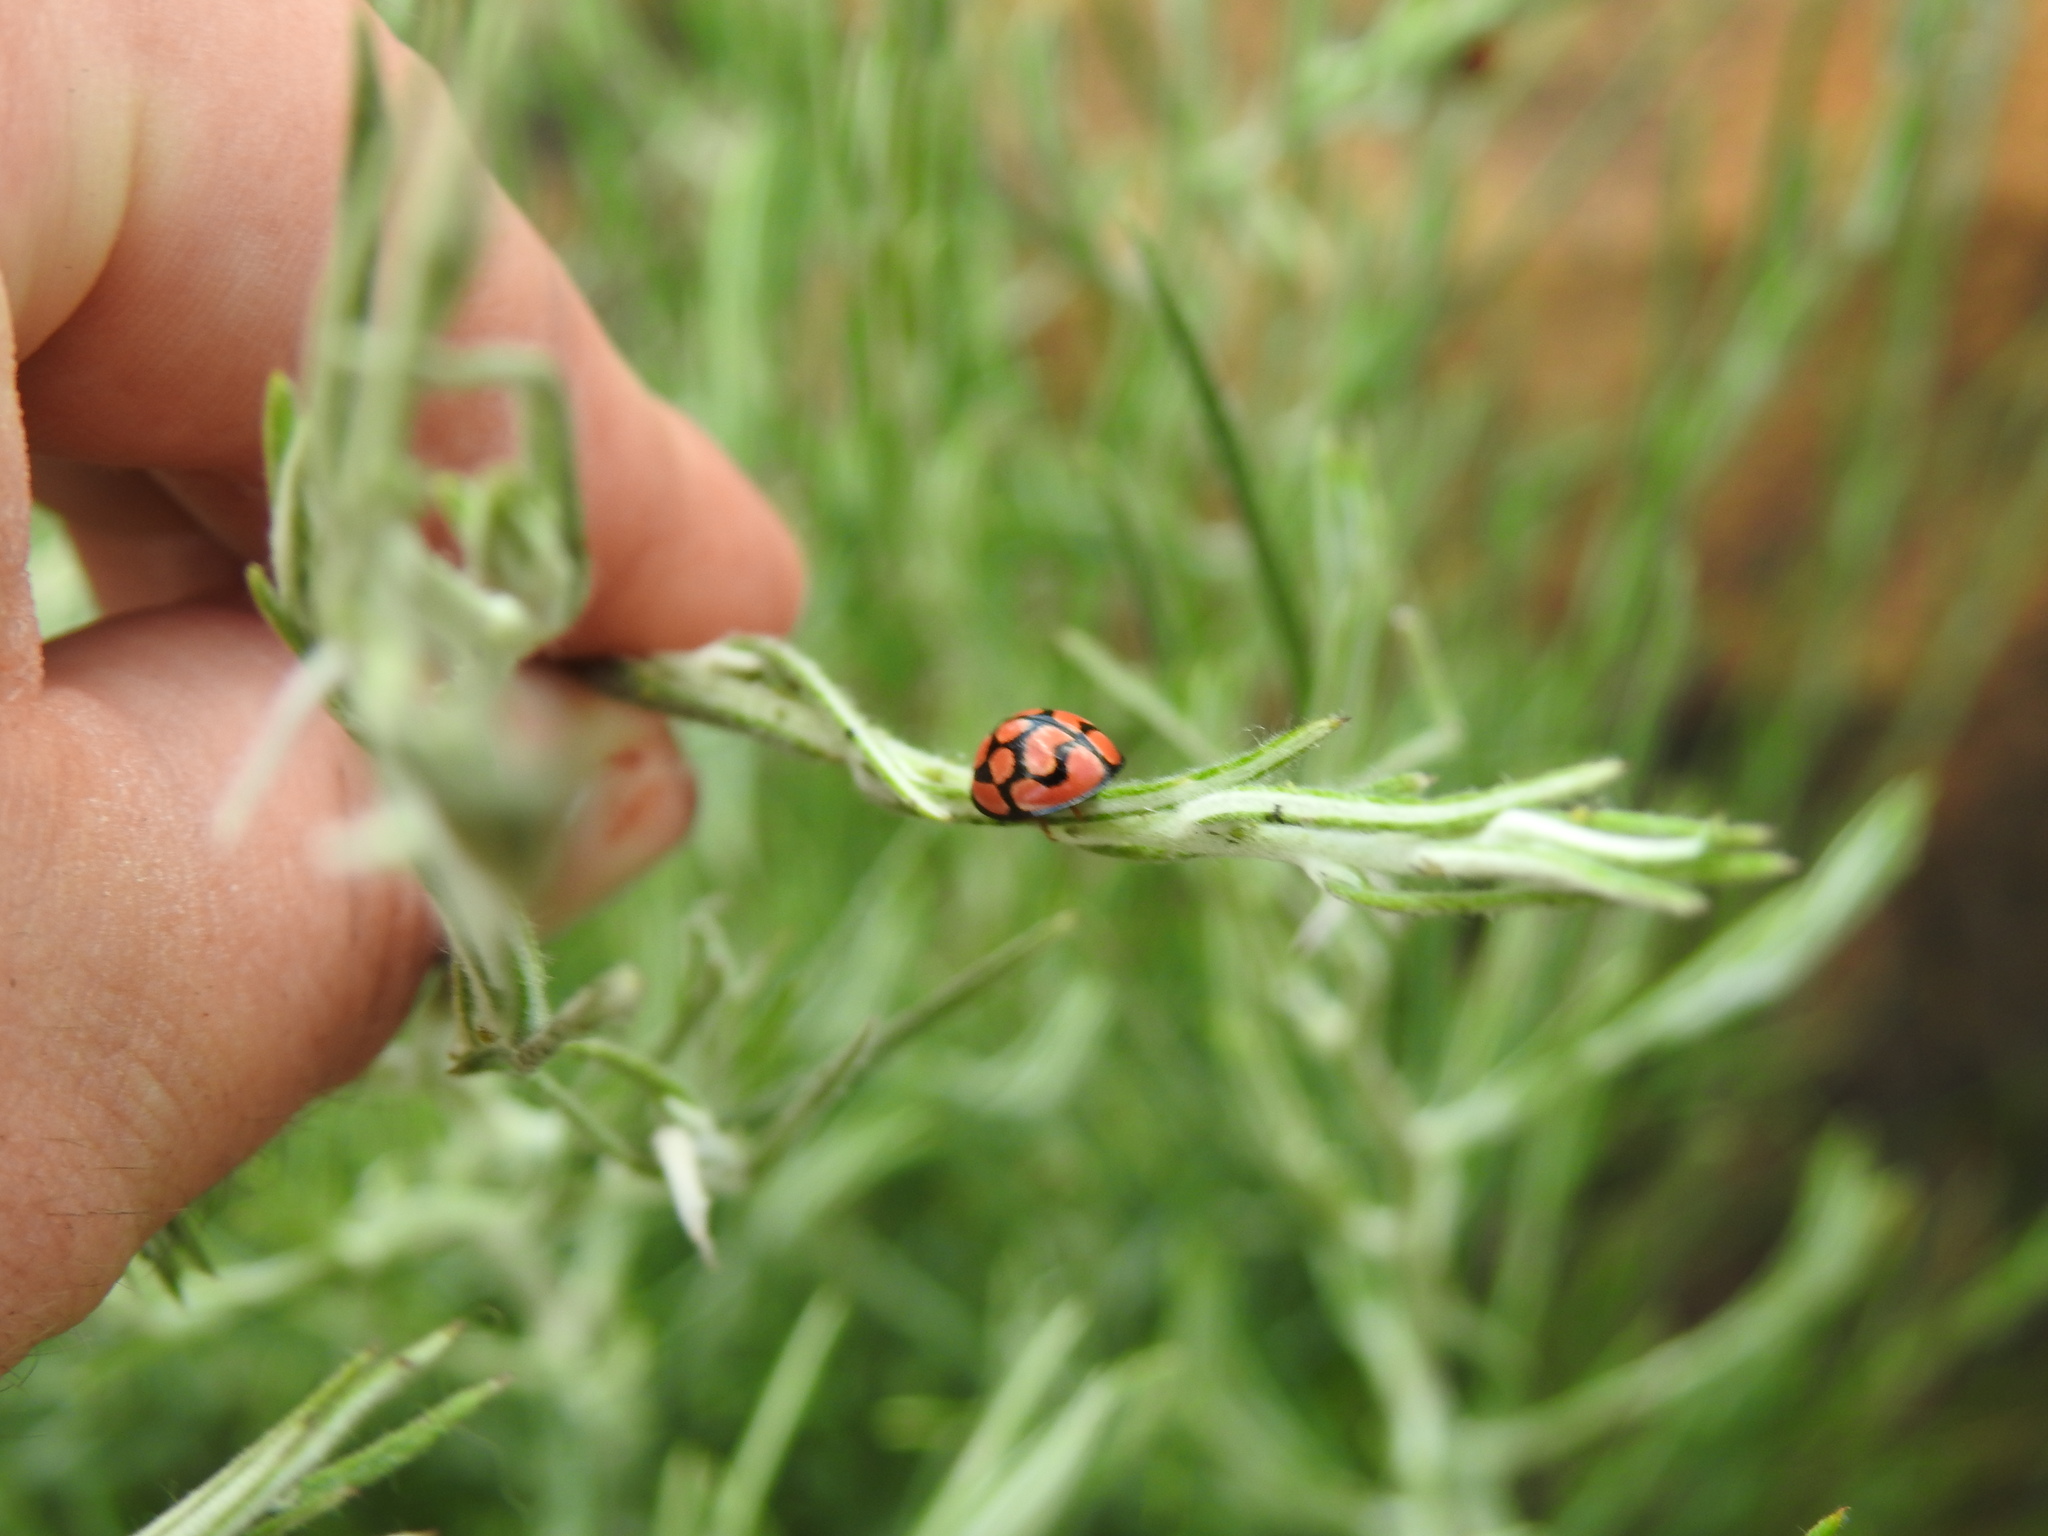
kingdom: Animalia
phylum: Arthropoda
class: Insecta
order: Coleoptera
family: Coccinellidae
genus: Cheilomenes
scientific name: Cheilomenes lunata
